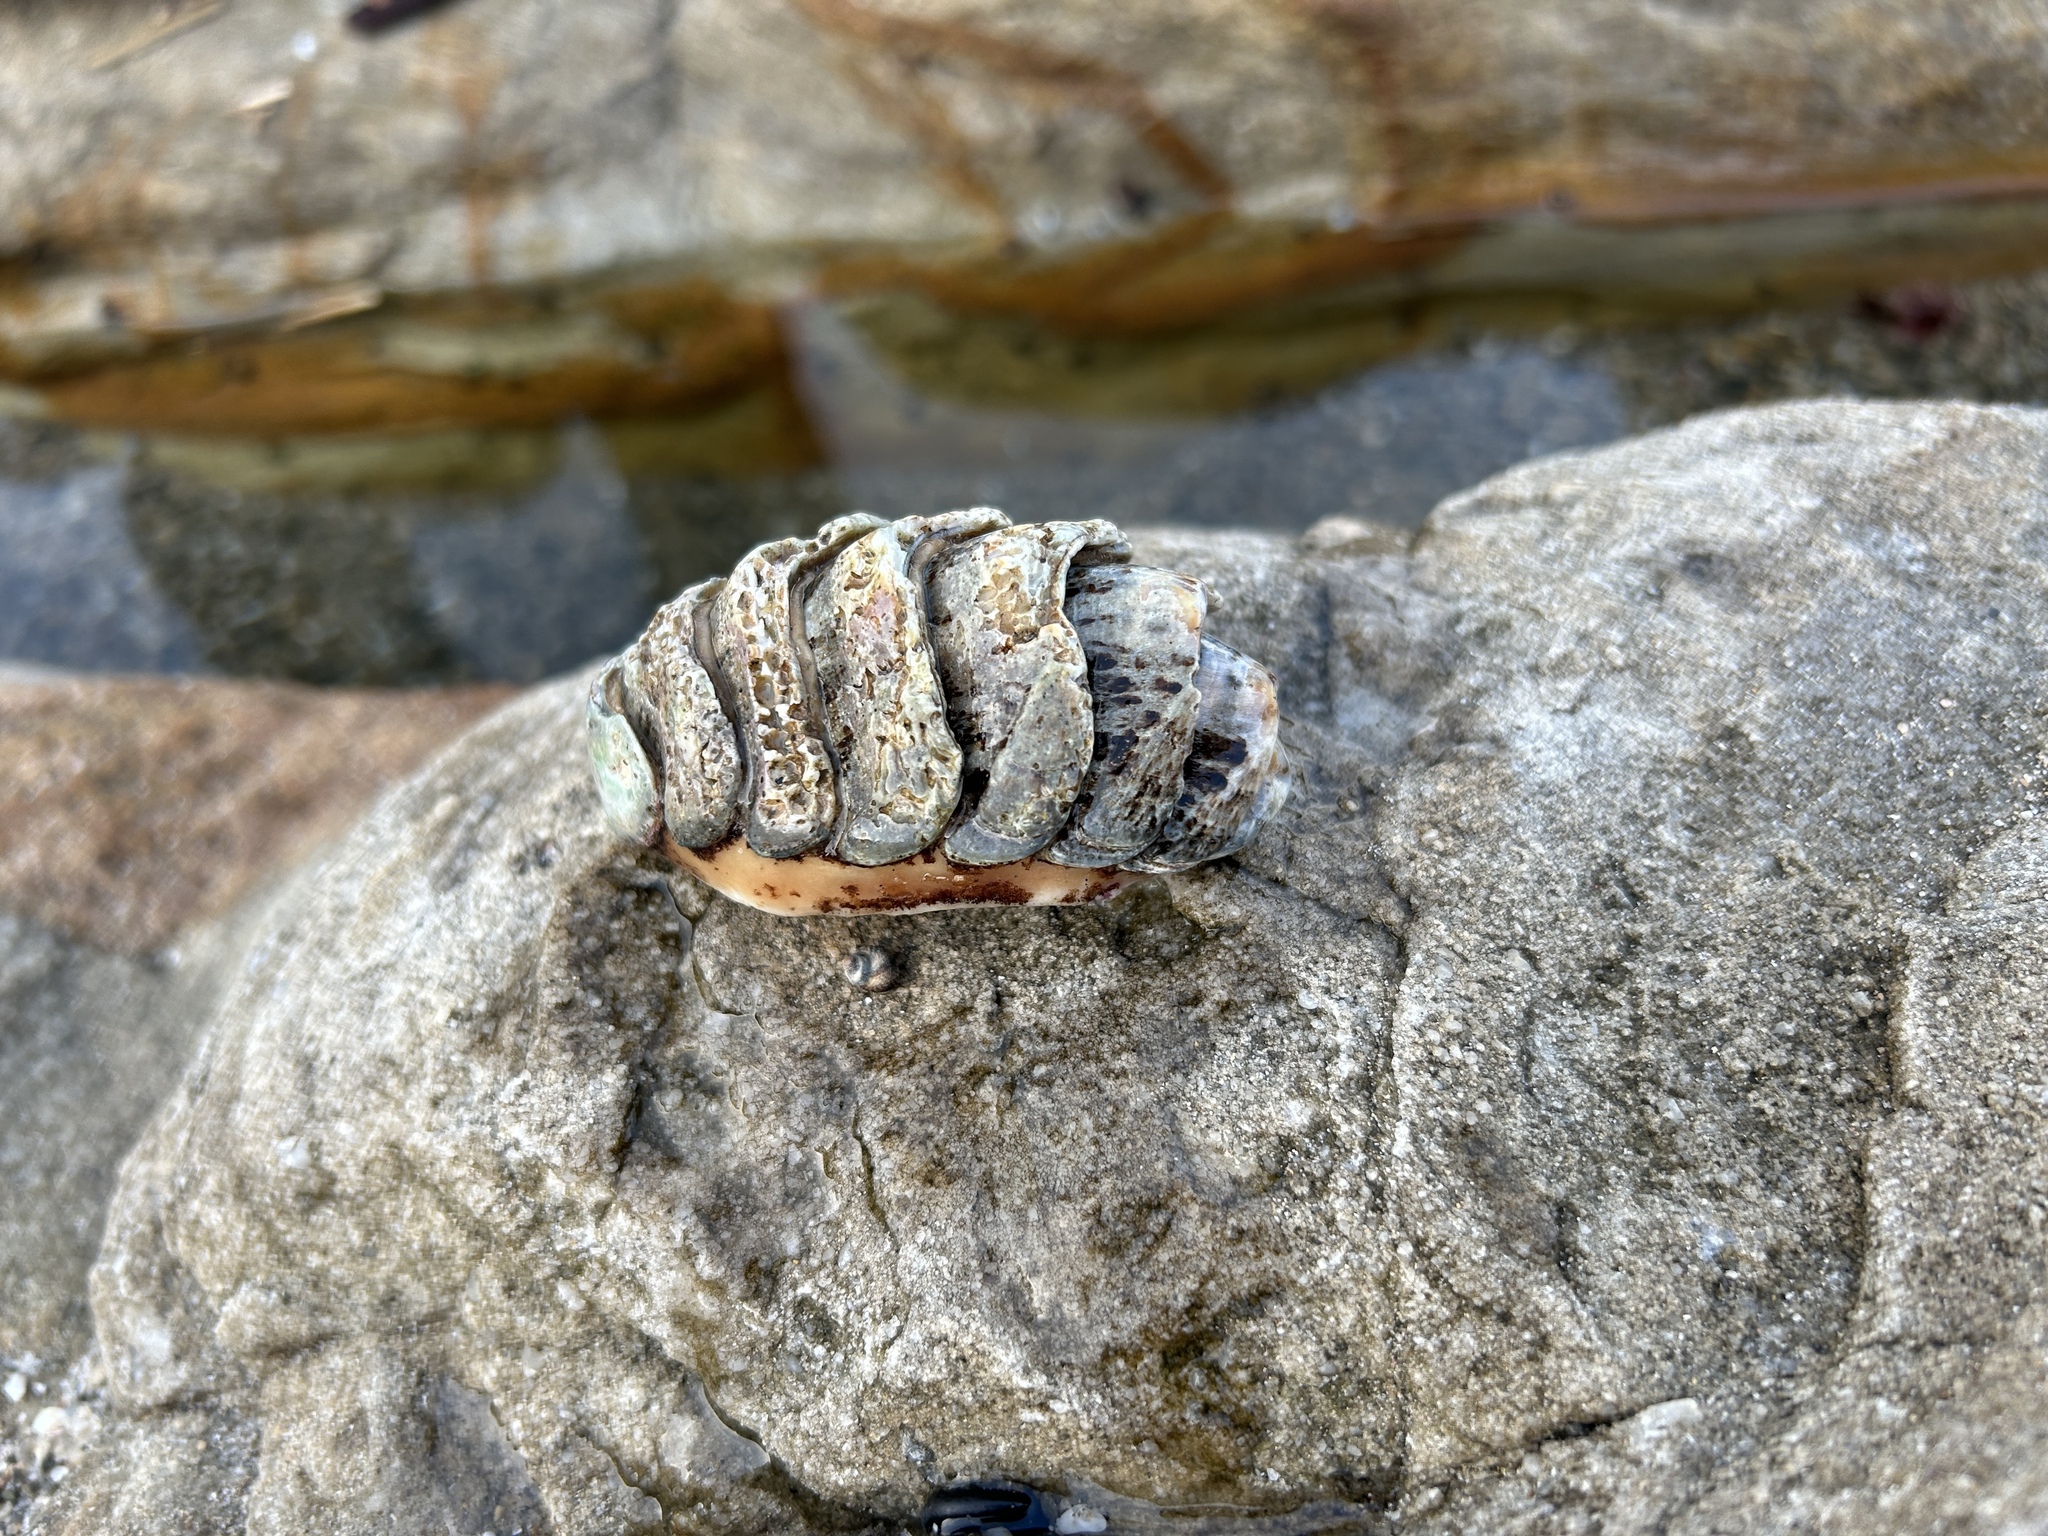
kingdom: Animalia
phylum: Mollusca
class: Polyplacophora
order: Chitonida
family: Chaetopleuridae
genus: Dinoplax
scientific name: Dinoplax gigas
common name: Armadillo
